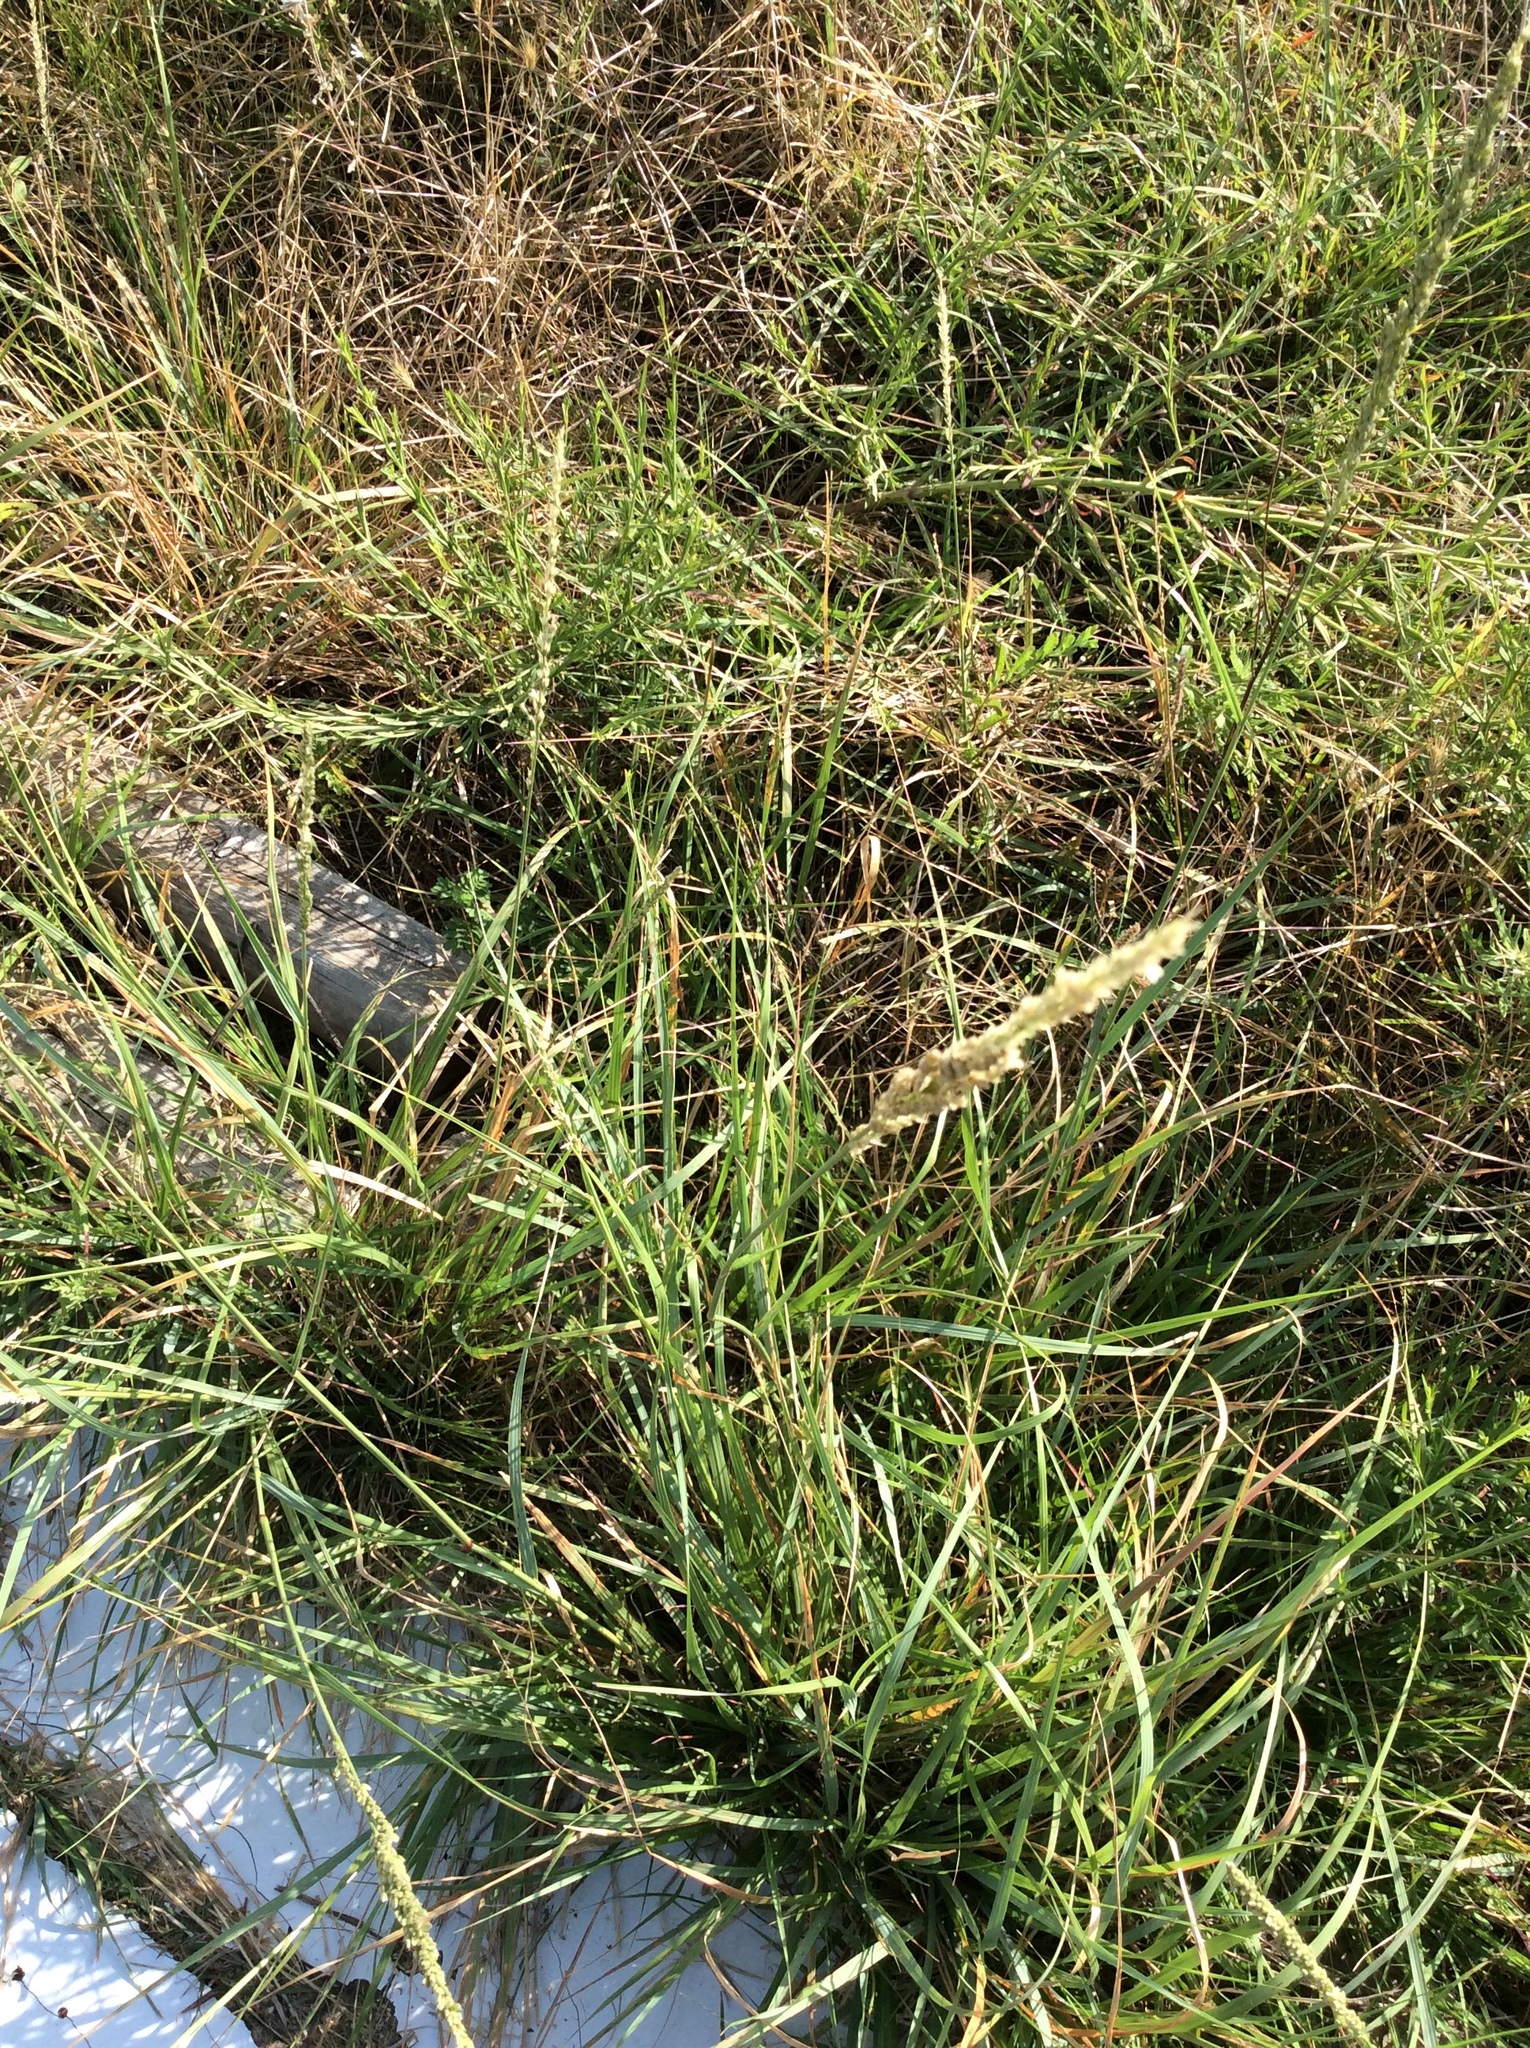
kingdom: Plantae
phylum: Tracheophyta
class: Liliopsida
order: Poales
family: Poaceae
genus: Tridens
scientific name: Tridens albescens
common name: White tridens
